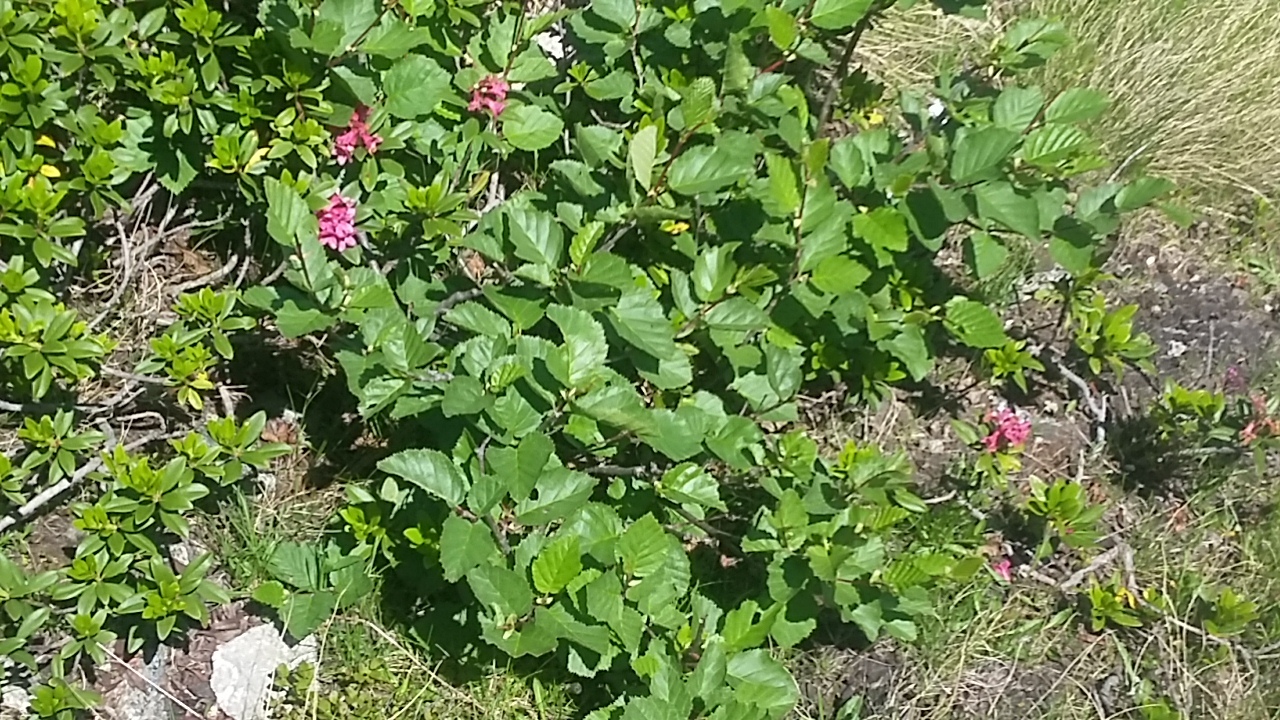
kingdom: Plantae
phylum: Tracheophyta
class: Magnoliopsida
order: Fagales
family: Betulaceae
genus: Alnus
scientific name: Alnus alnobetula
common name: Green alder
